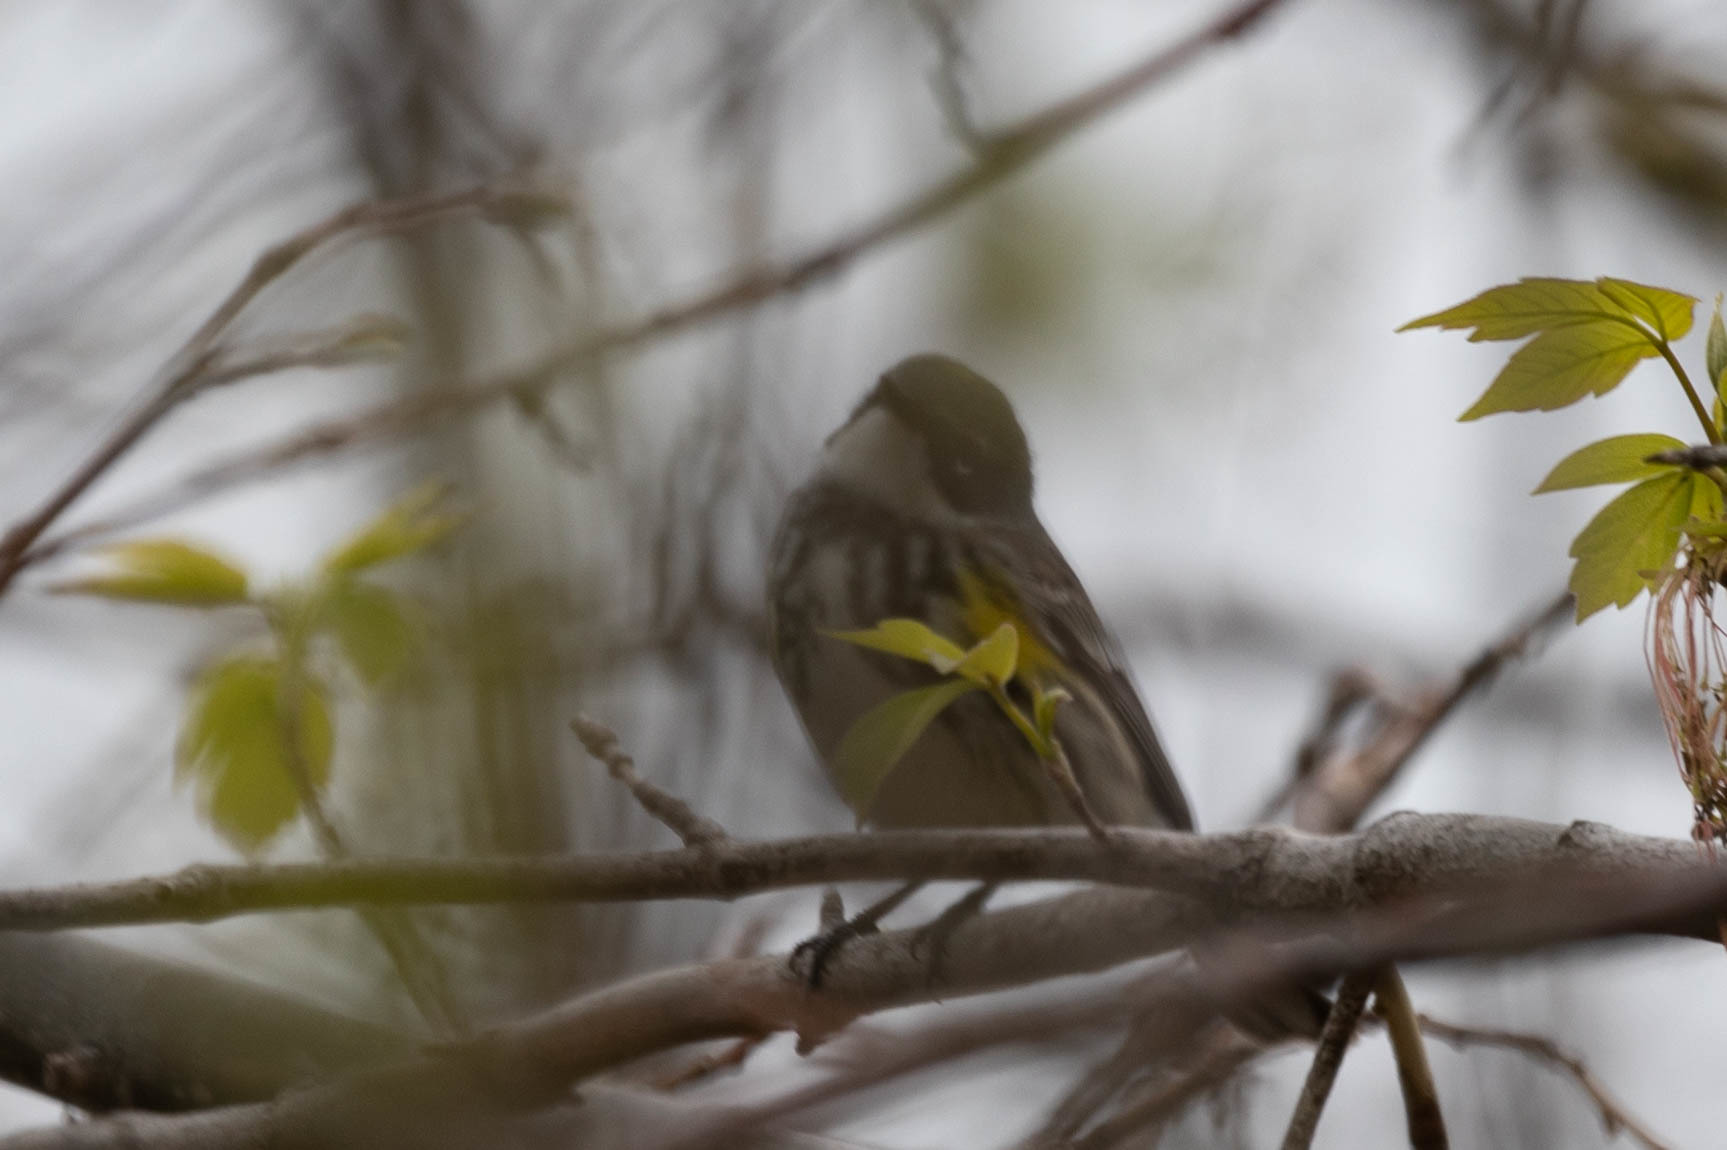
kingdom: Animalia
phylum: Chordata
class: Aves
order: Passeriformes
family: Parulidae
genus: Setophaga
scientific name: Setophaga coronata
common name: Myrtle warbler
